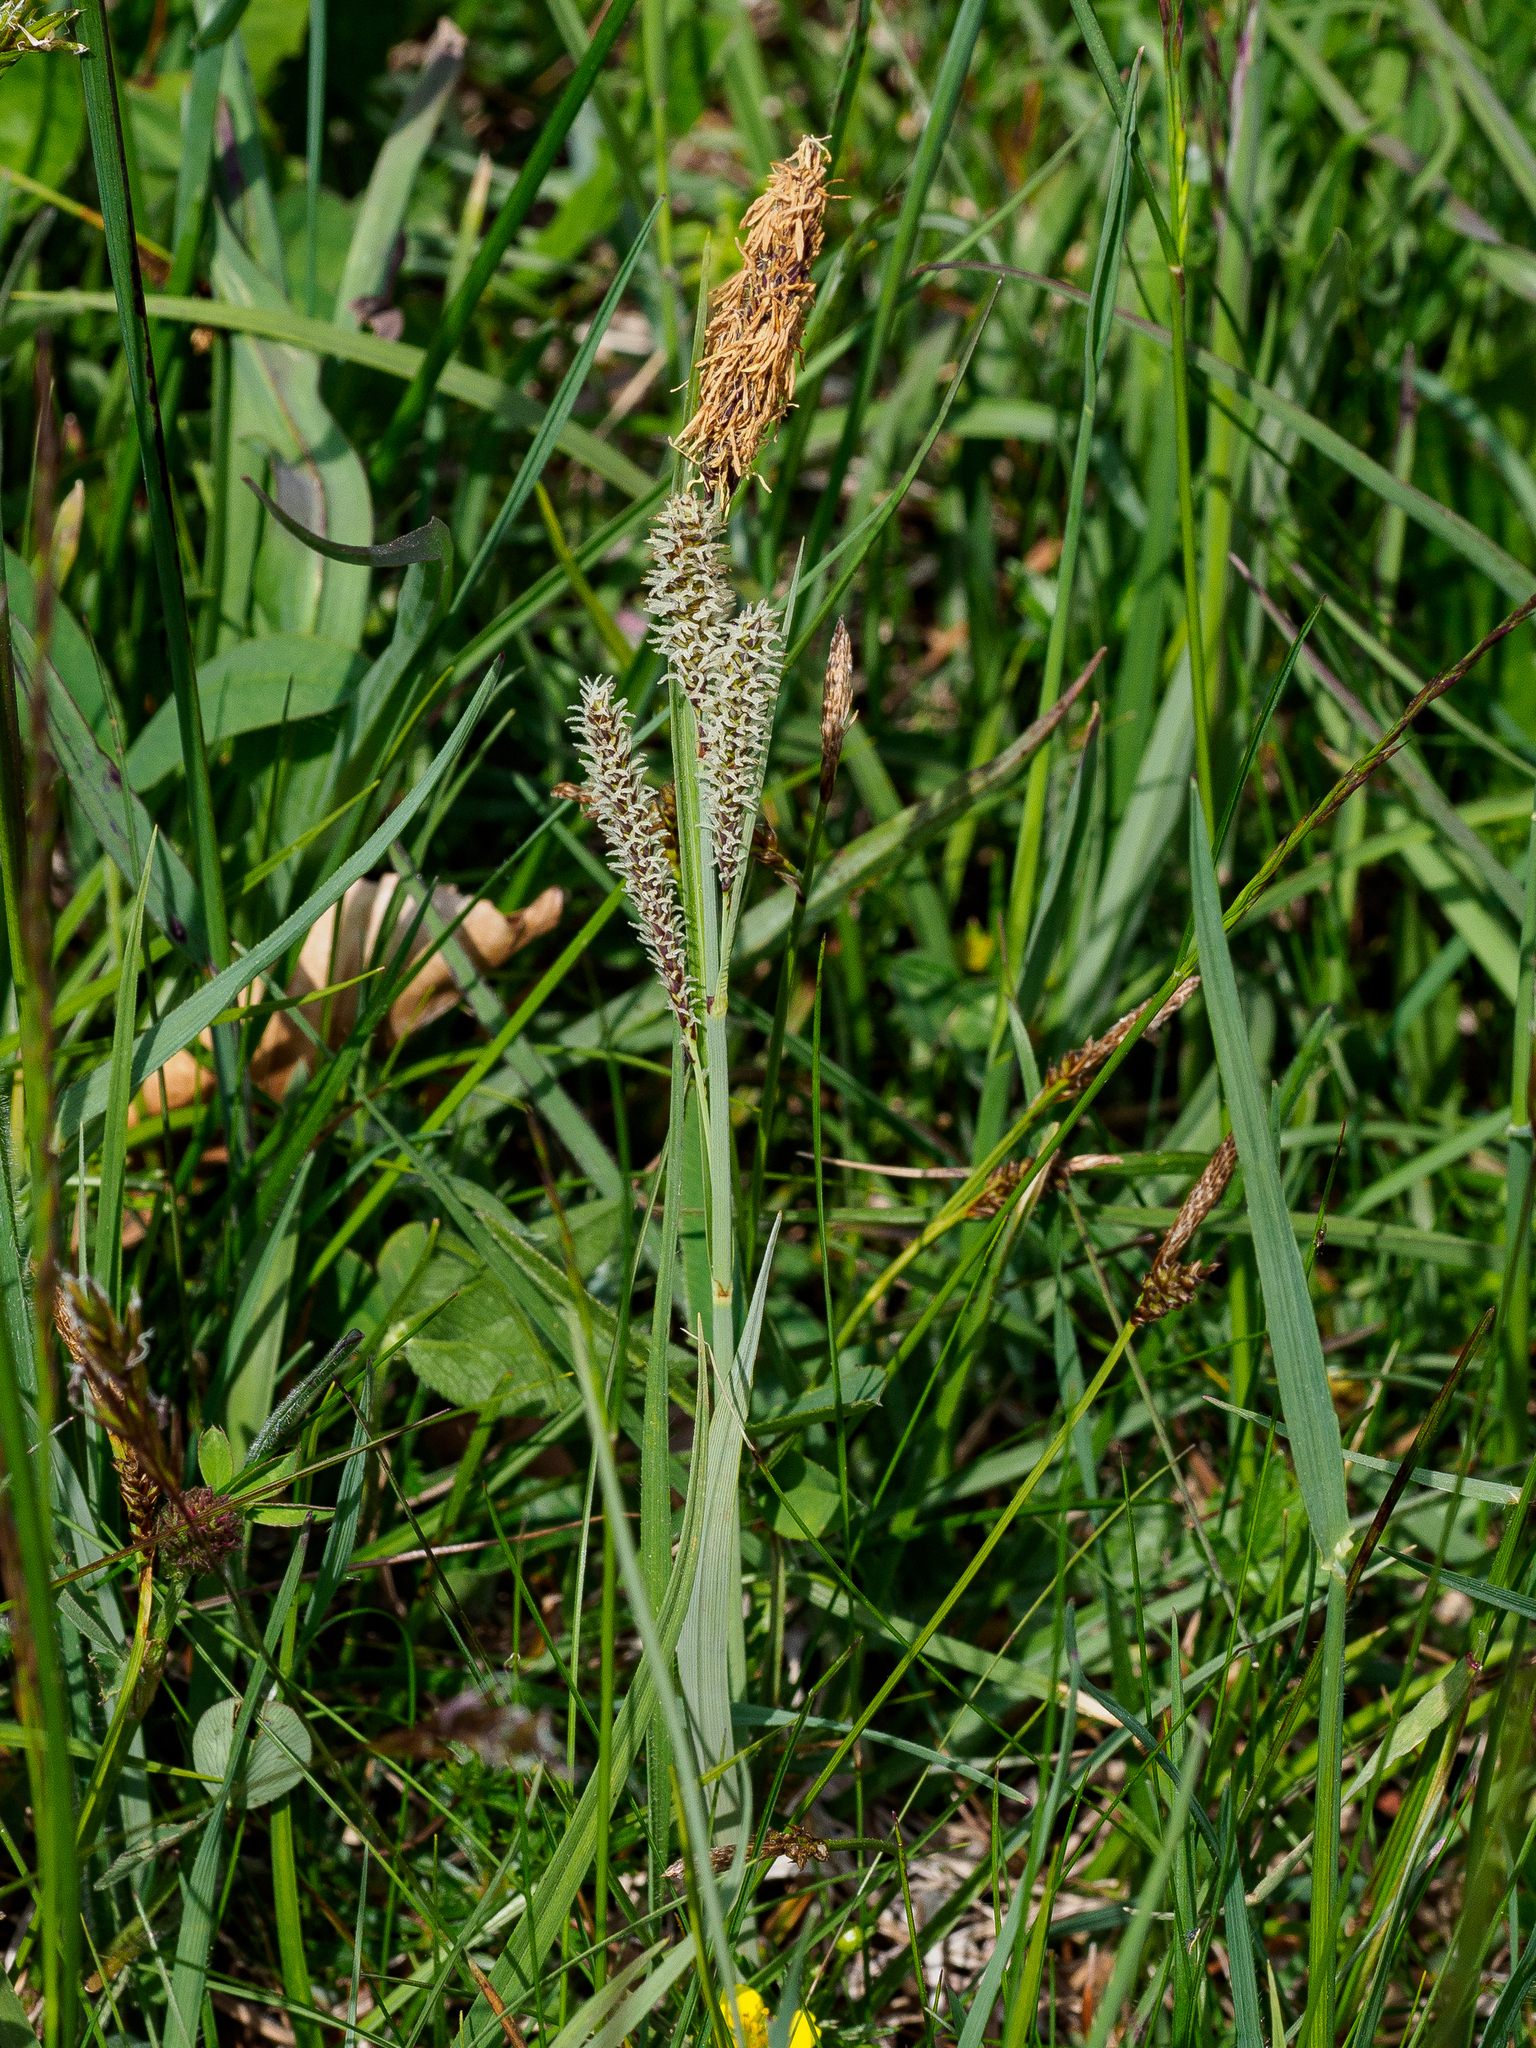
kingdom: Plantae
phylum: Tracheophyta
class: Liliopsida
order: Poales
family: Cyperaceae
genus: Carex
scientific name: Carex flacca
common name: Glaucous sedge
